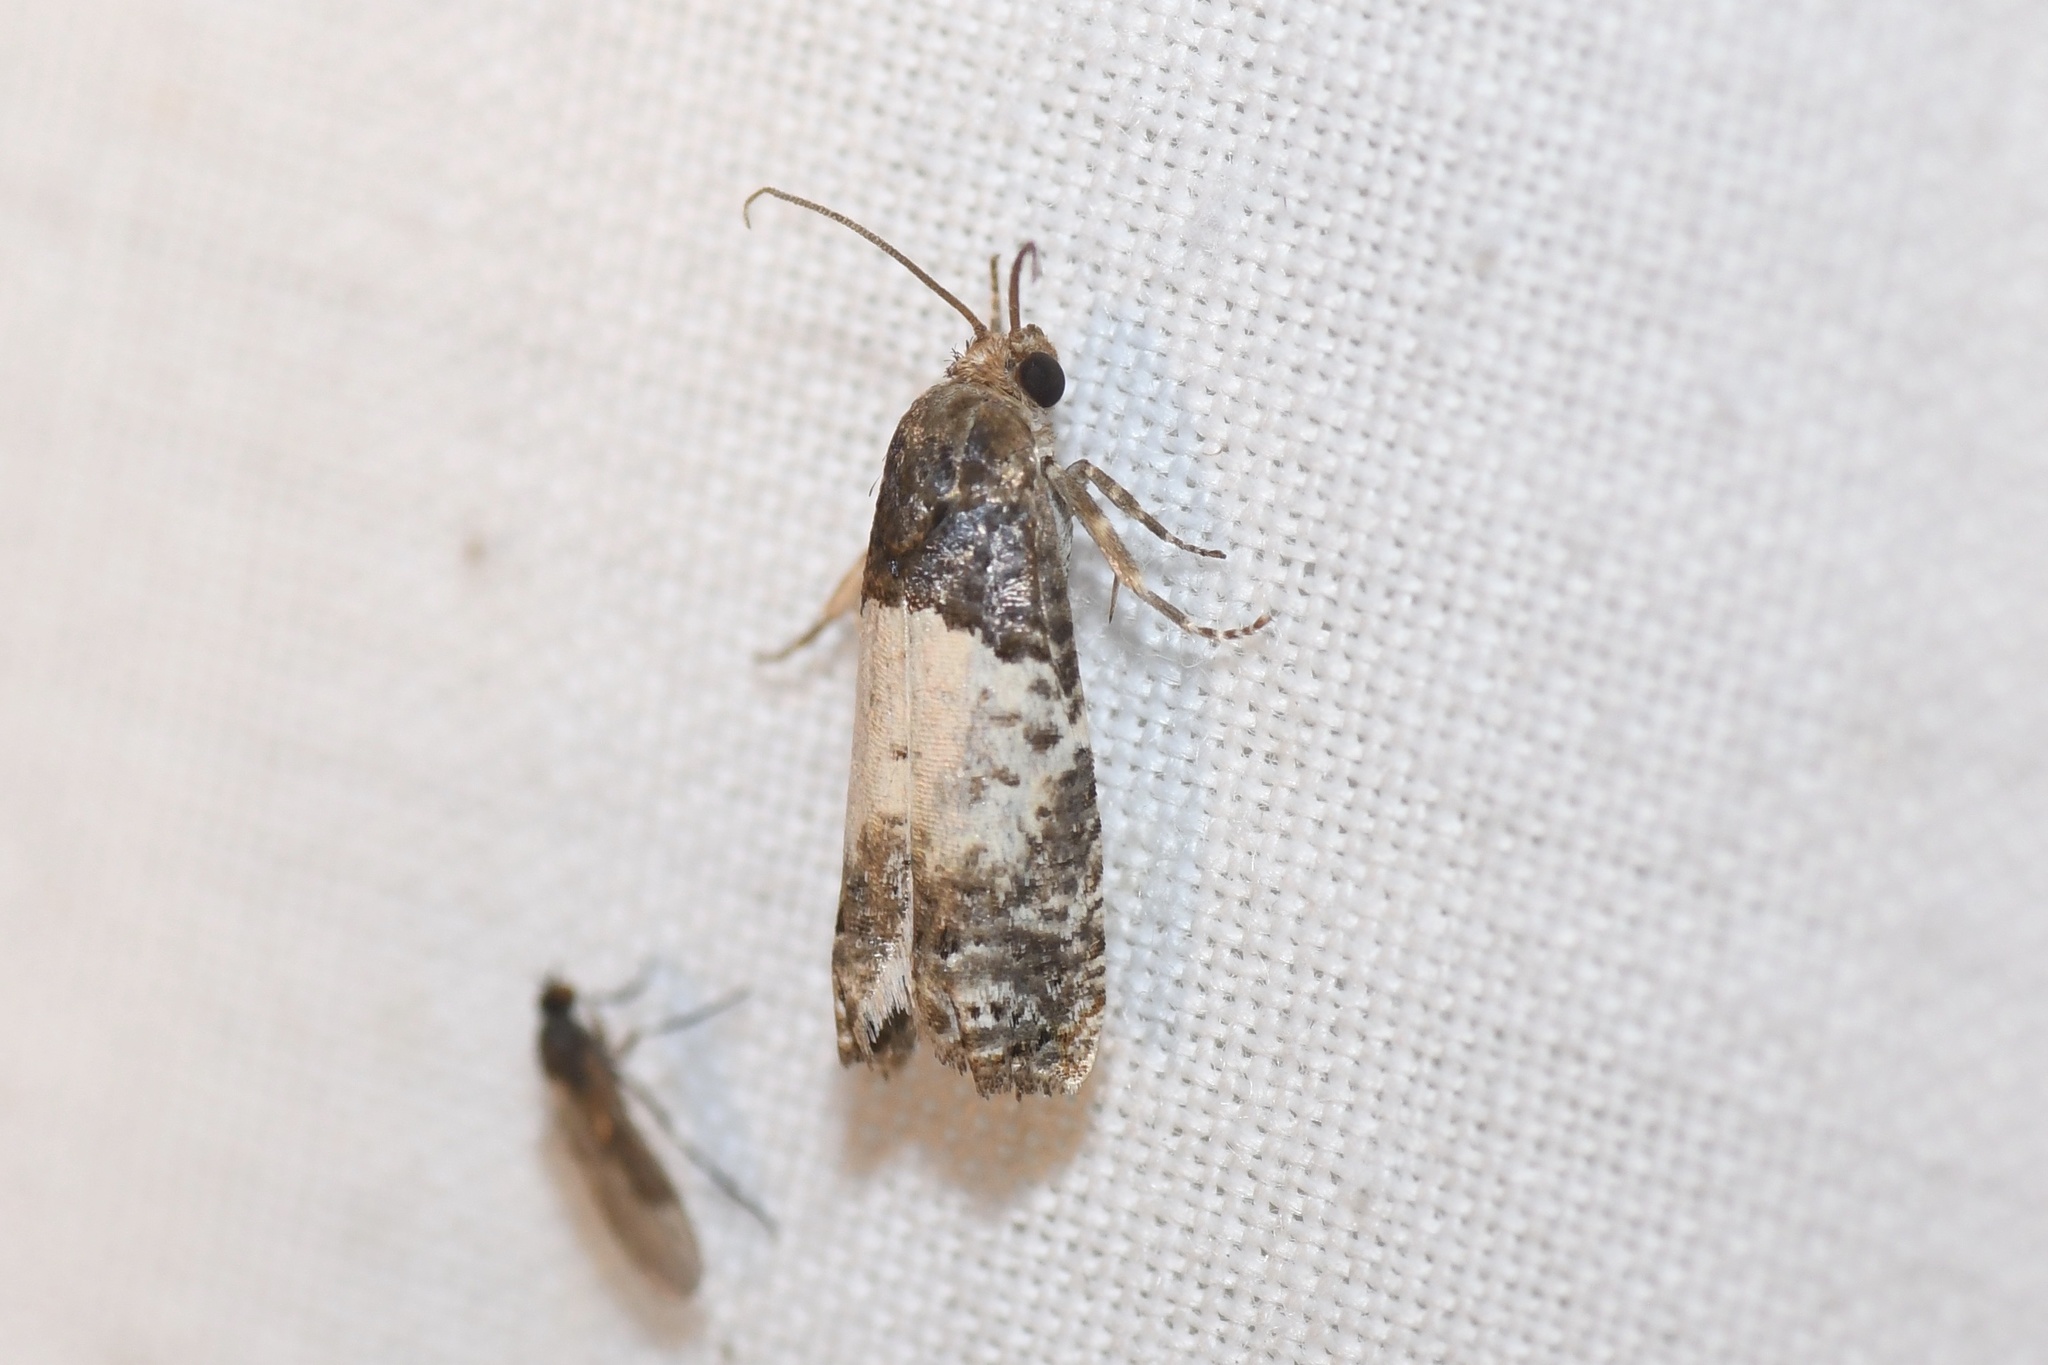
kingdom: Animalia
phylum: Arthropoda
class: Insecta
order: Lepidoptera
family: Tortricidae
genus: Epiblema
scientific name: Epiblema scudderiana
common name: Goldenrod gall moth
